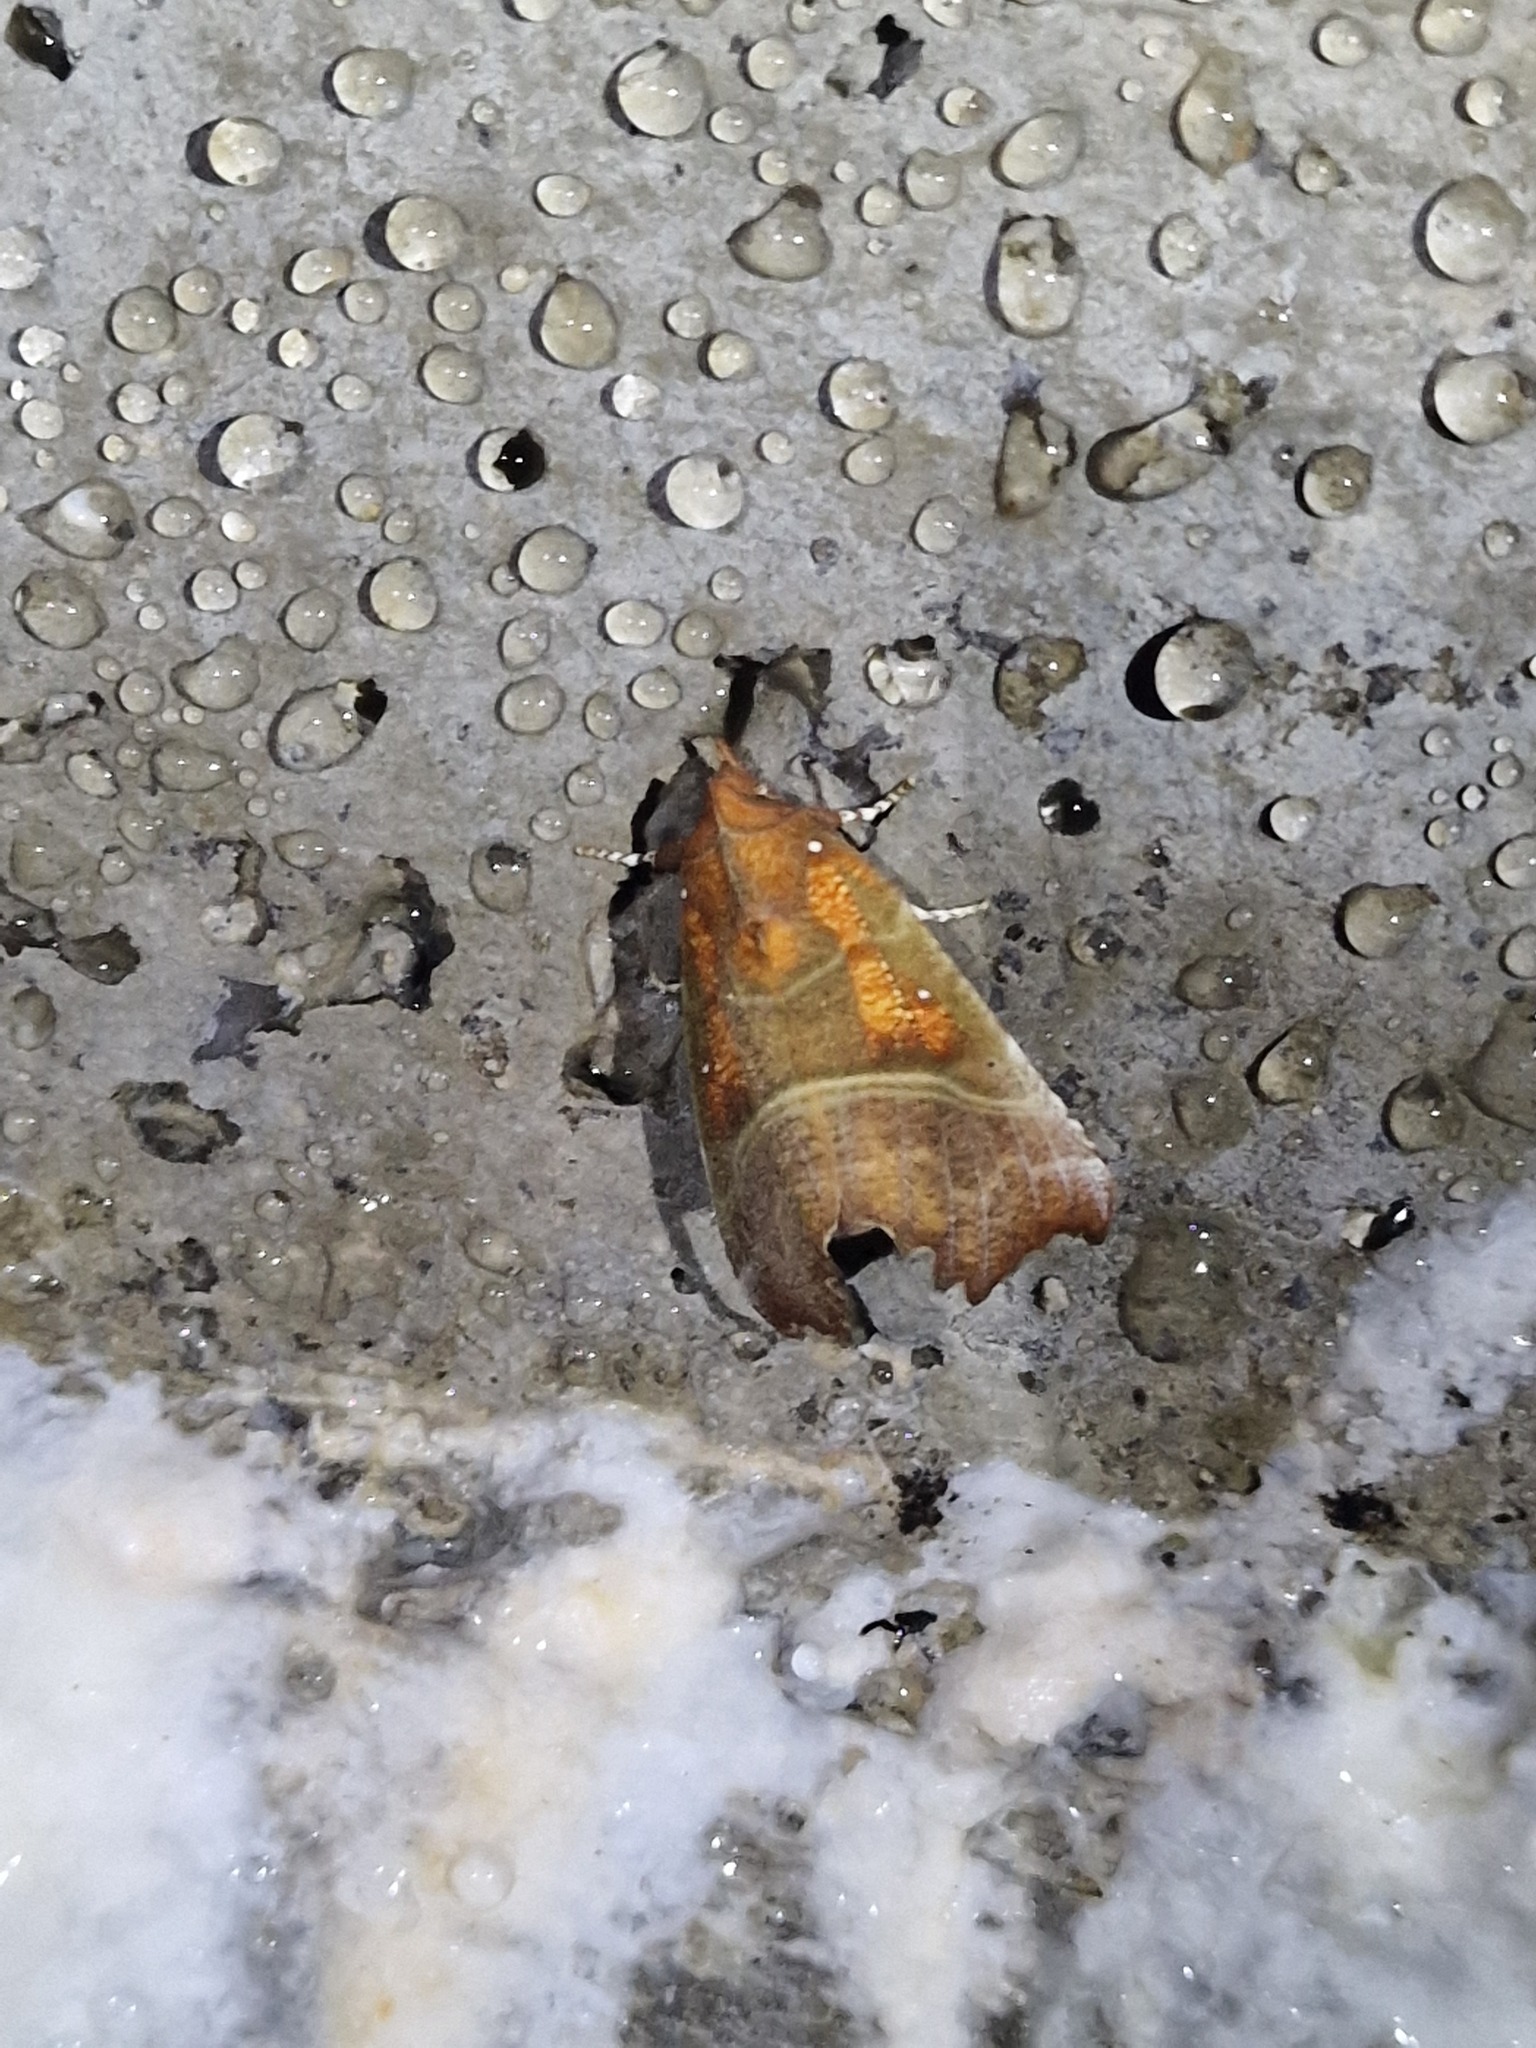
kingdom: Animalia
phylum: Arthropoda
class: Insecta
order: Lepidoptera
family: Erebidae
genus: Scoliopteryx
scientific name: Scoliopteryx libatrix
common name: Herald
